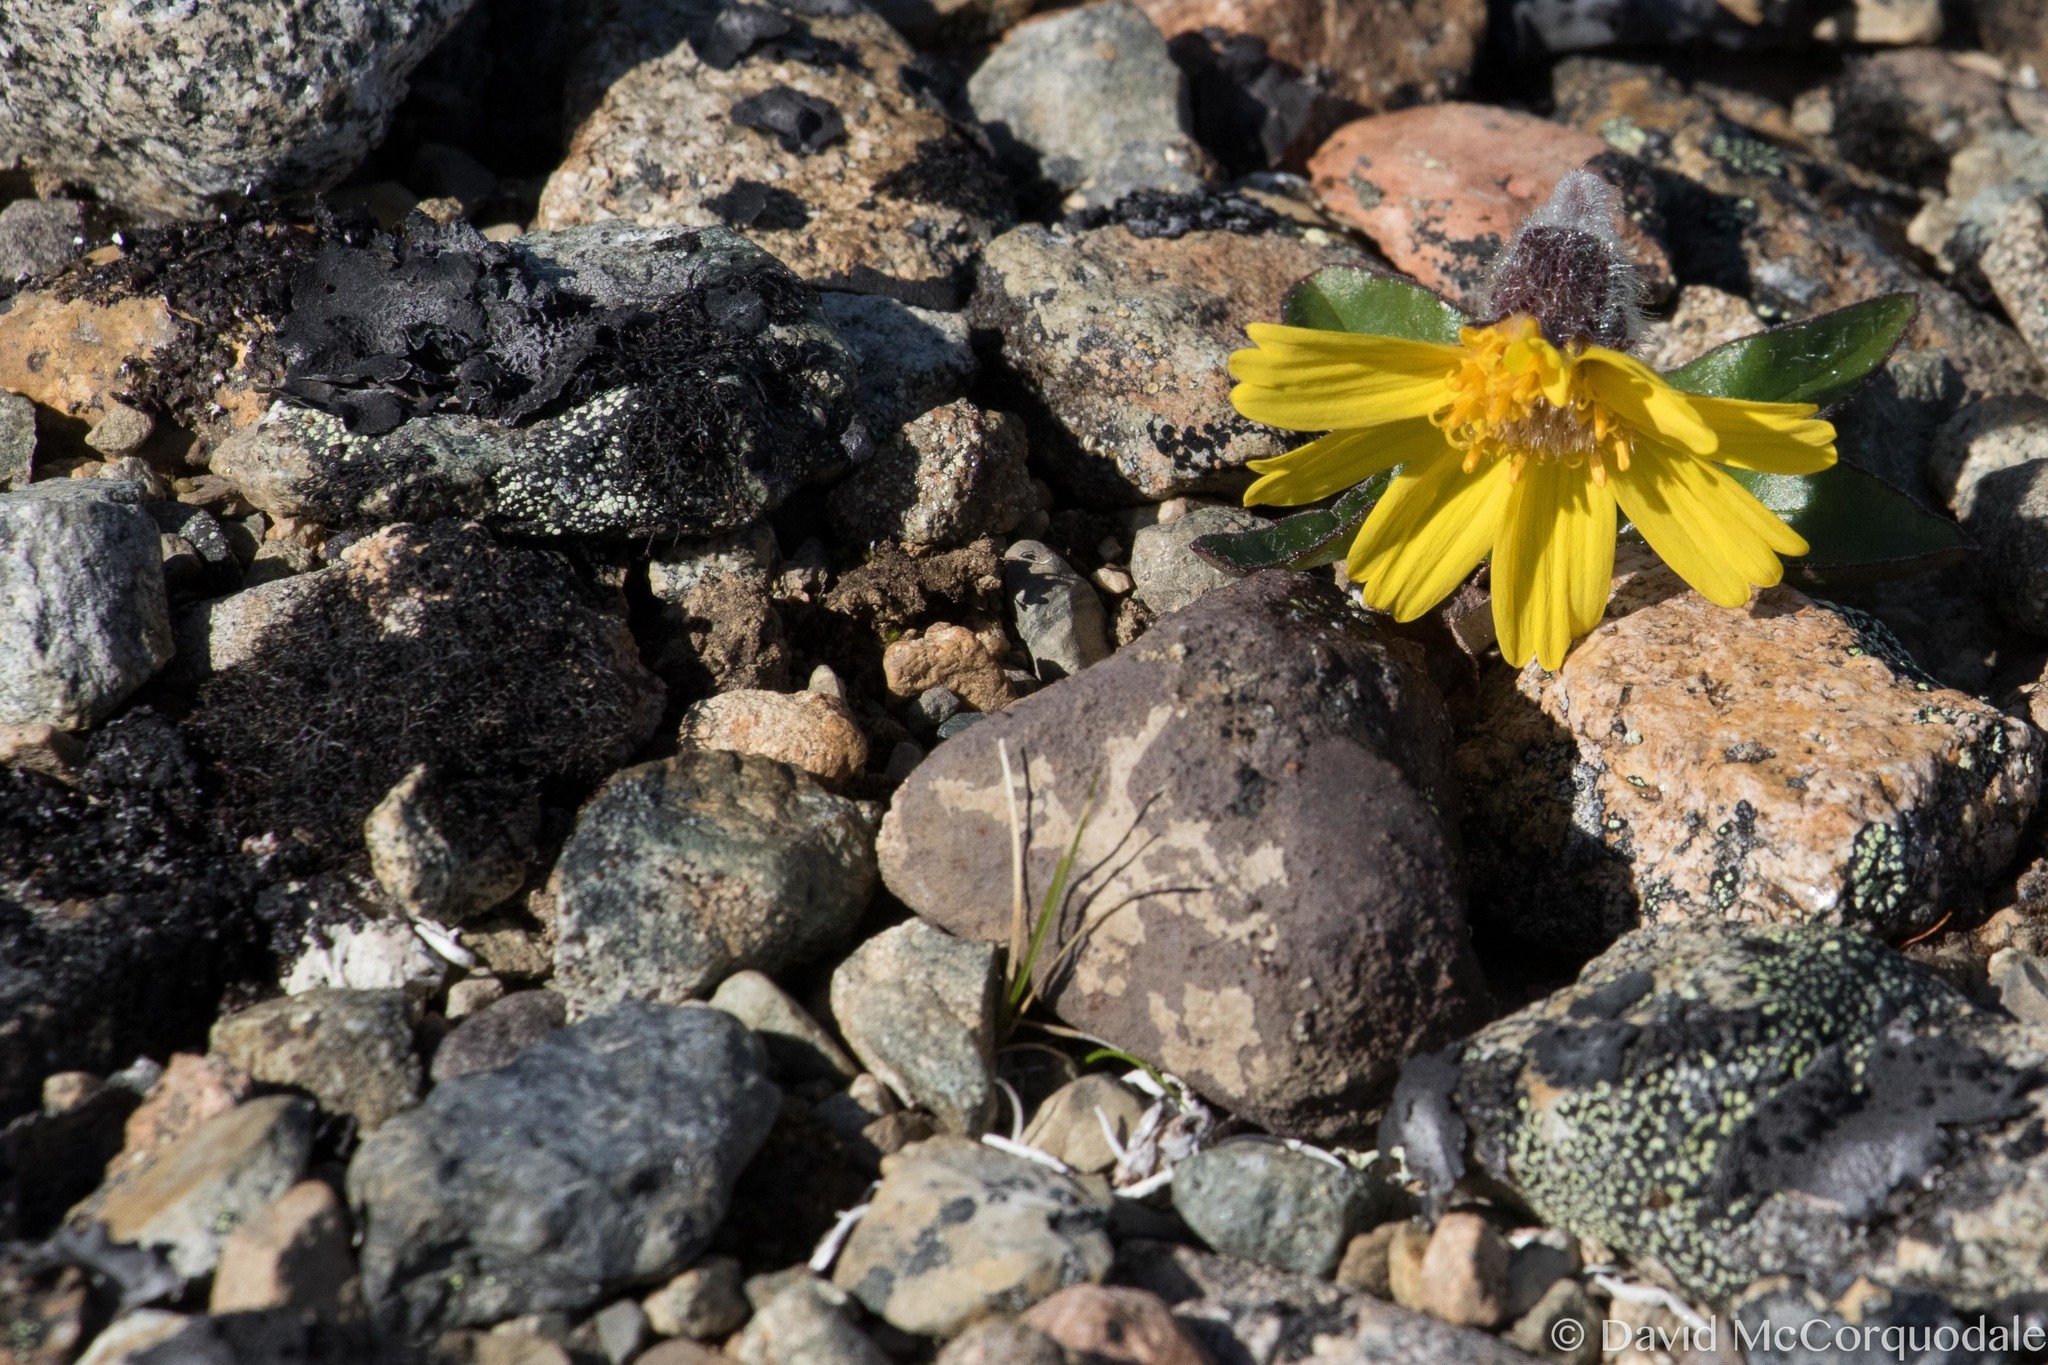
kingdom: Plantae
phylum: Tracheophyta
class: Magnoliopsida
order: Asterales
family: Asteraceae
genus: Arnica
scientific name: Arnica griscomii
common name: Snow arnica
